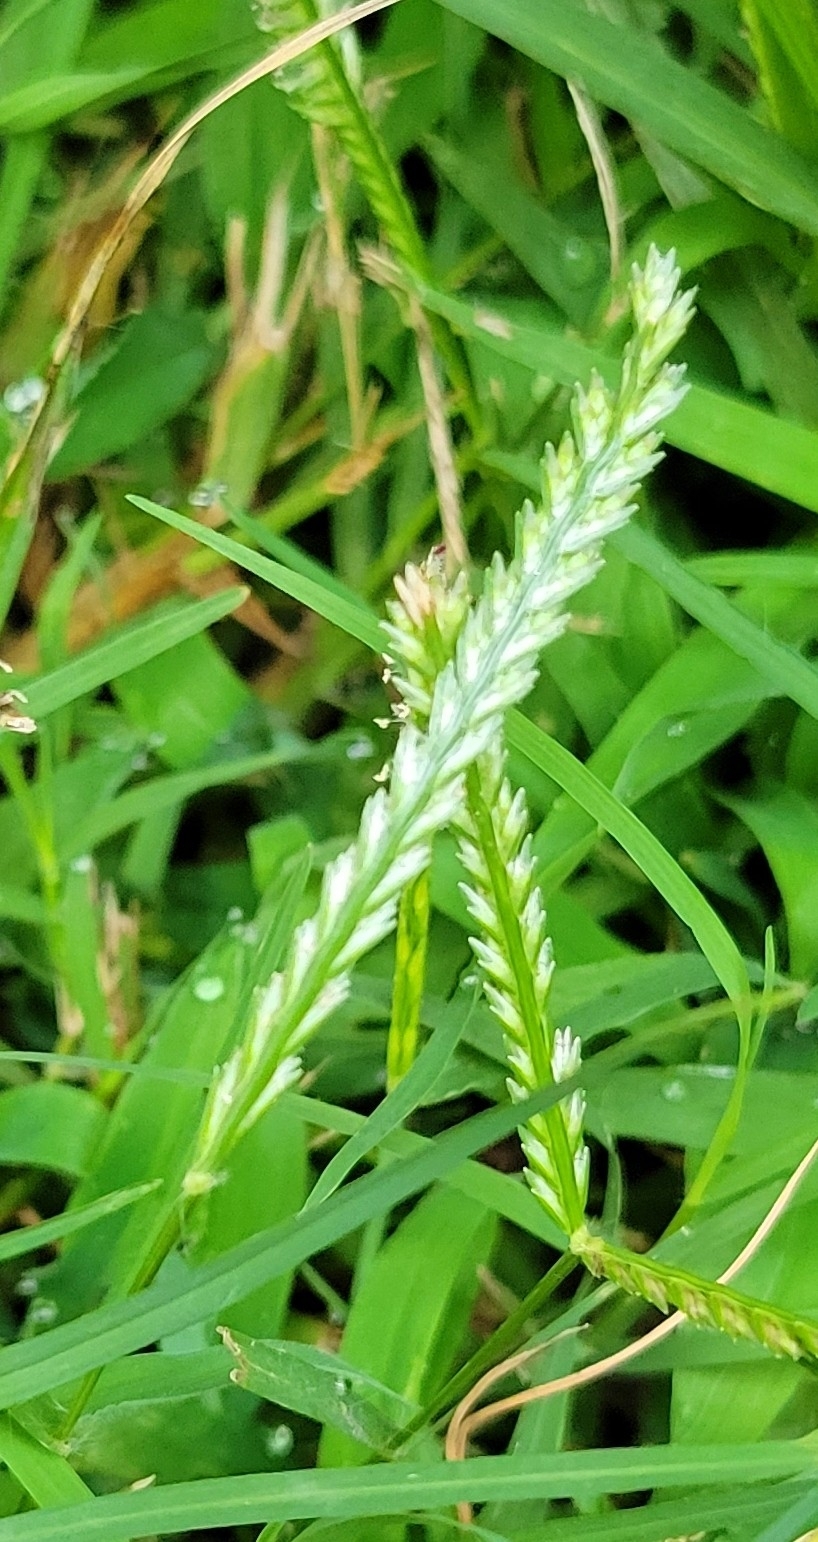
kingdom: Plantae
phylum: Tracheophyta
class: Liliopsida
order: Poales
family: Poaceae
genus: Eleusine
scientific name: Eleusine indica
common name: Yard-grass
